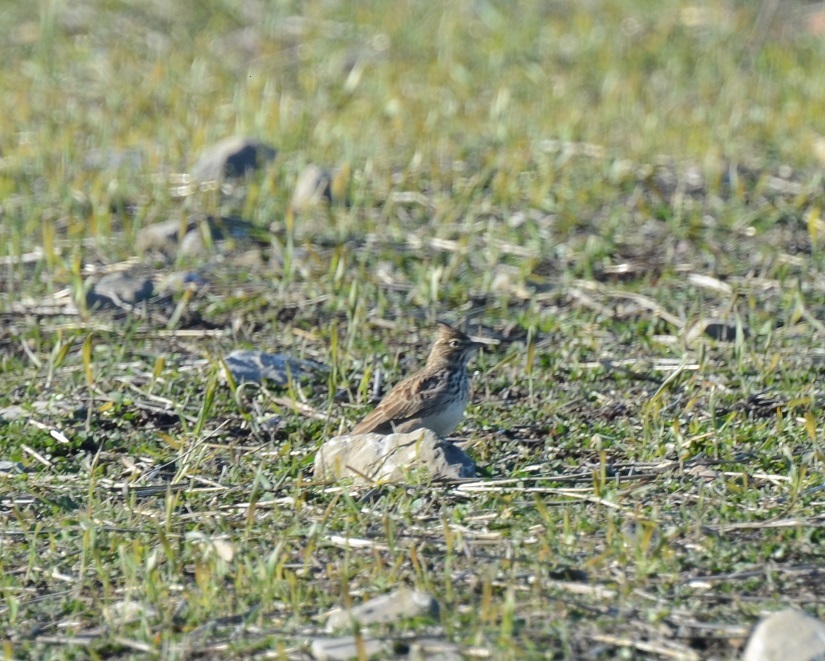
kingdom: Animalia
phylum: Chordata
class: Aves
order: Passeriformes
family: Alaudidae
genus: Galerida
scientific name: Galerida theklae
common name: Thekla lark
